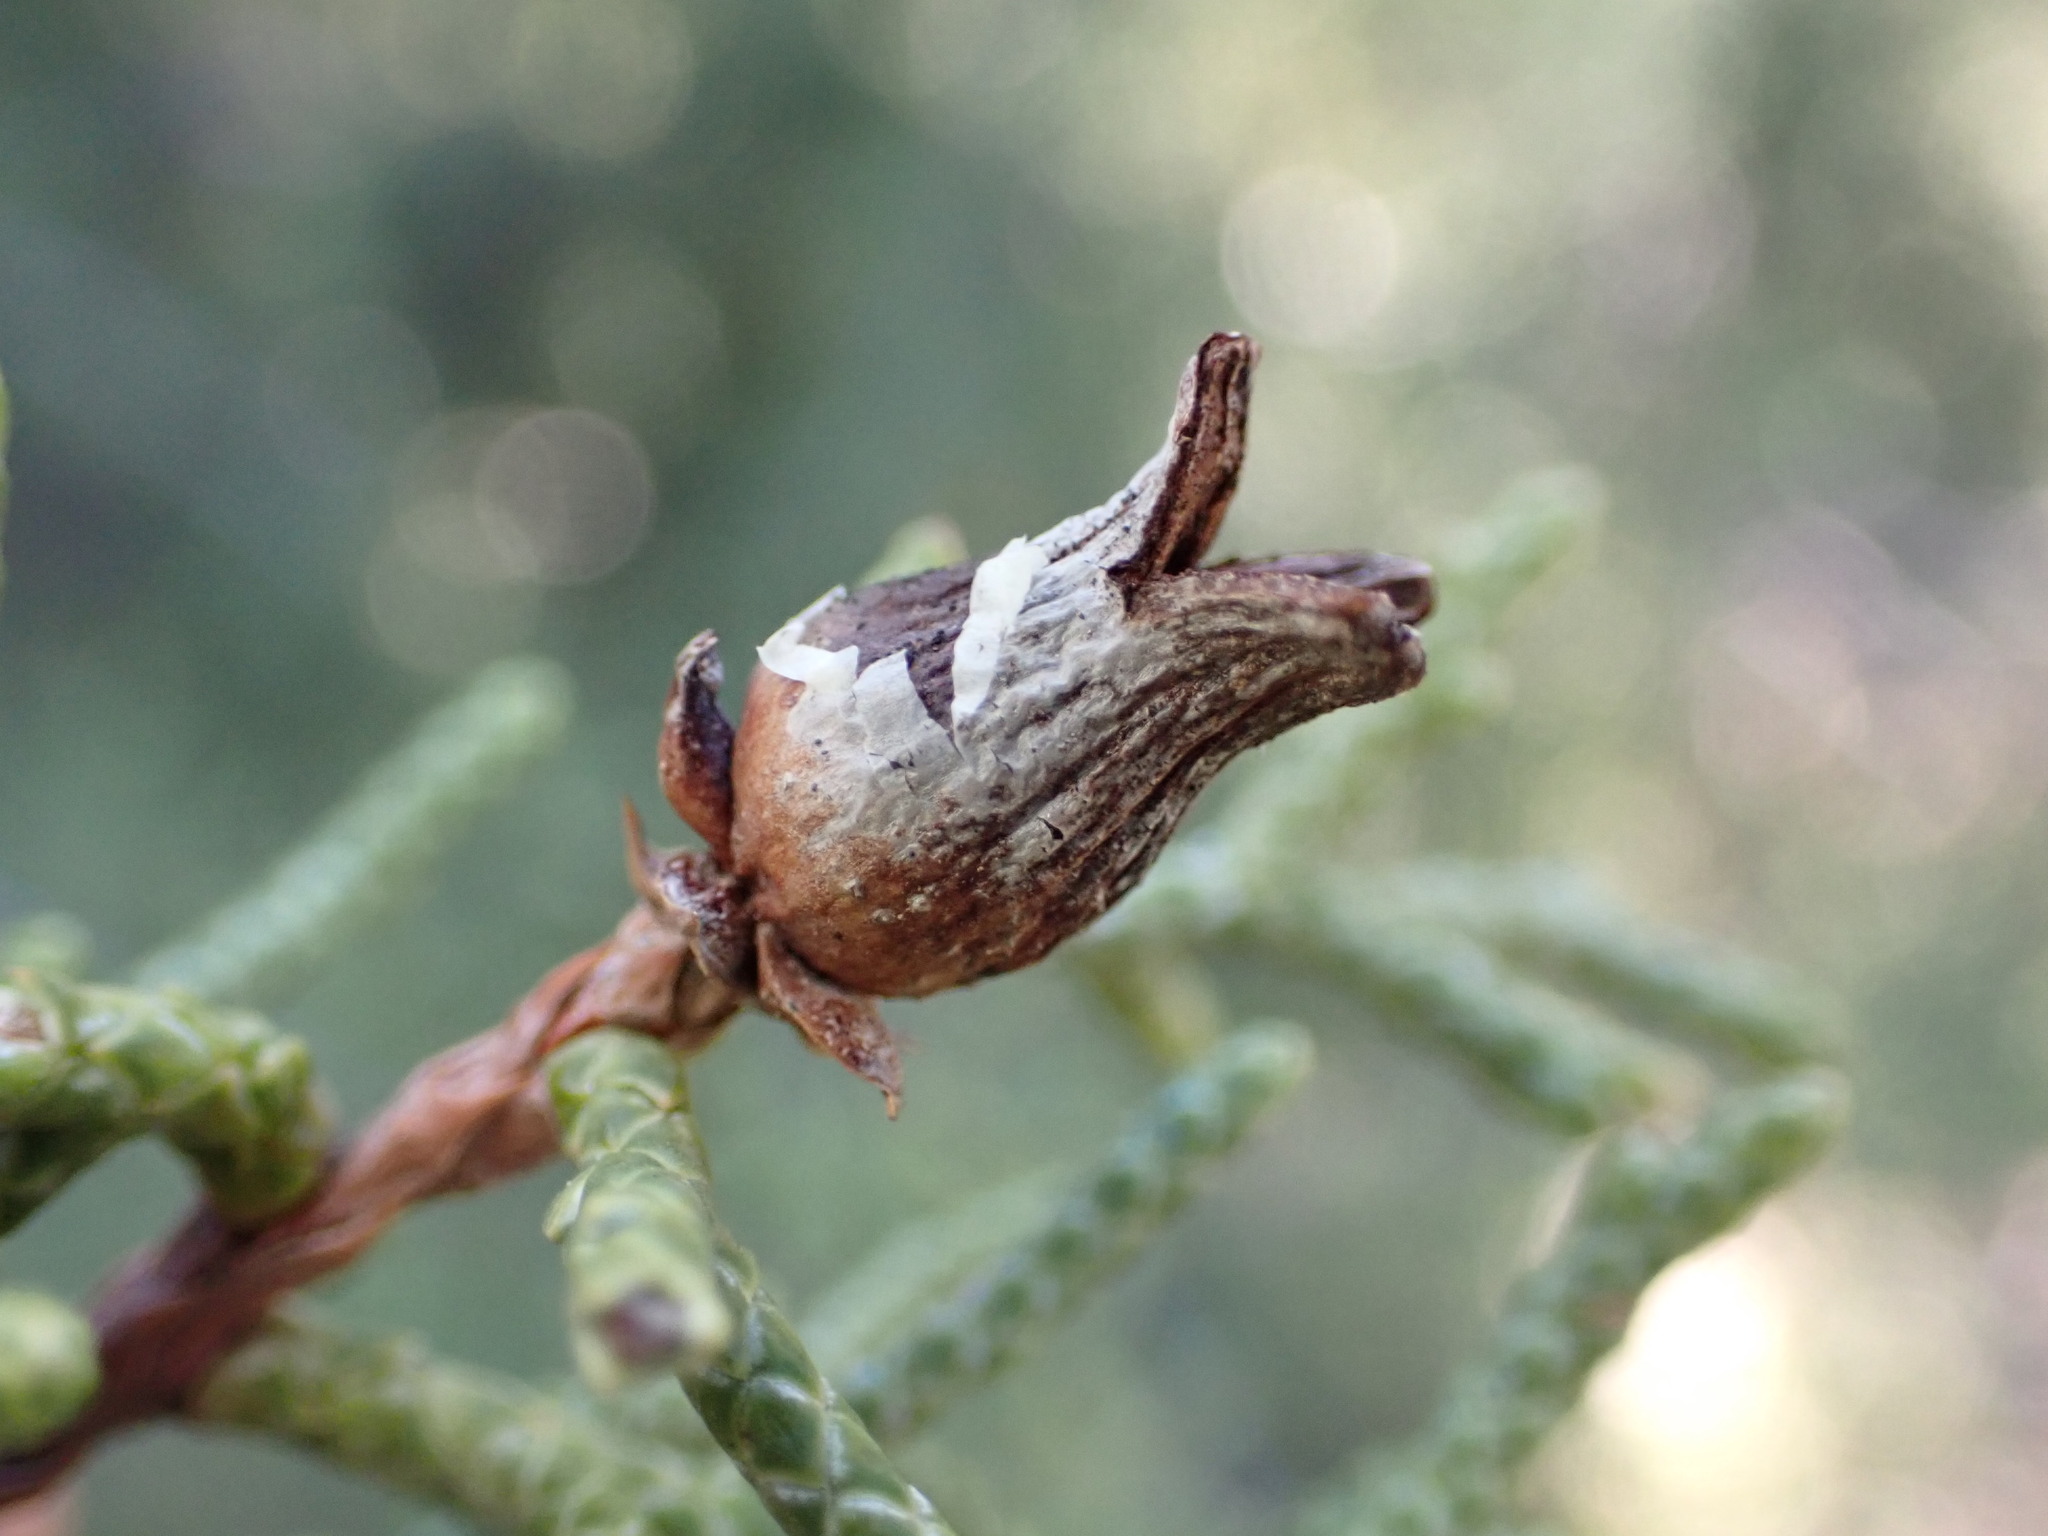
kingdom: Animalia
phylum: Arthropoda
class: Insecta
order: Diptera
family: Cecidomyiidae
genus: Walshomyia
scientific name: Walshomyia juniperina
